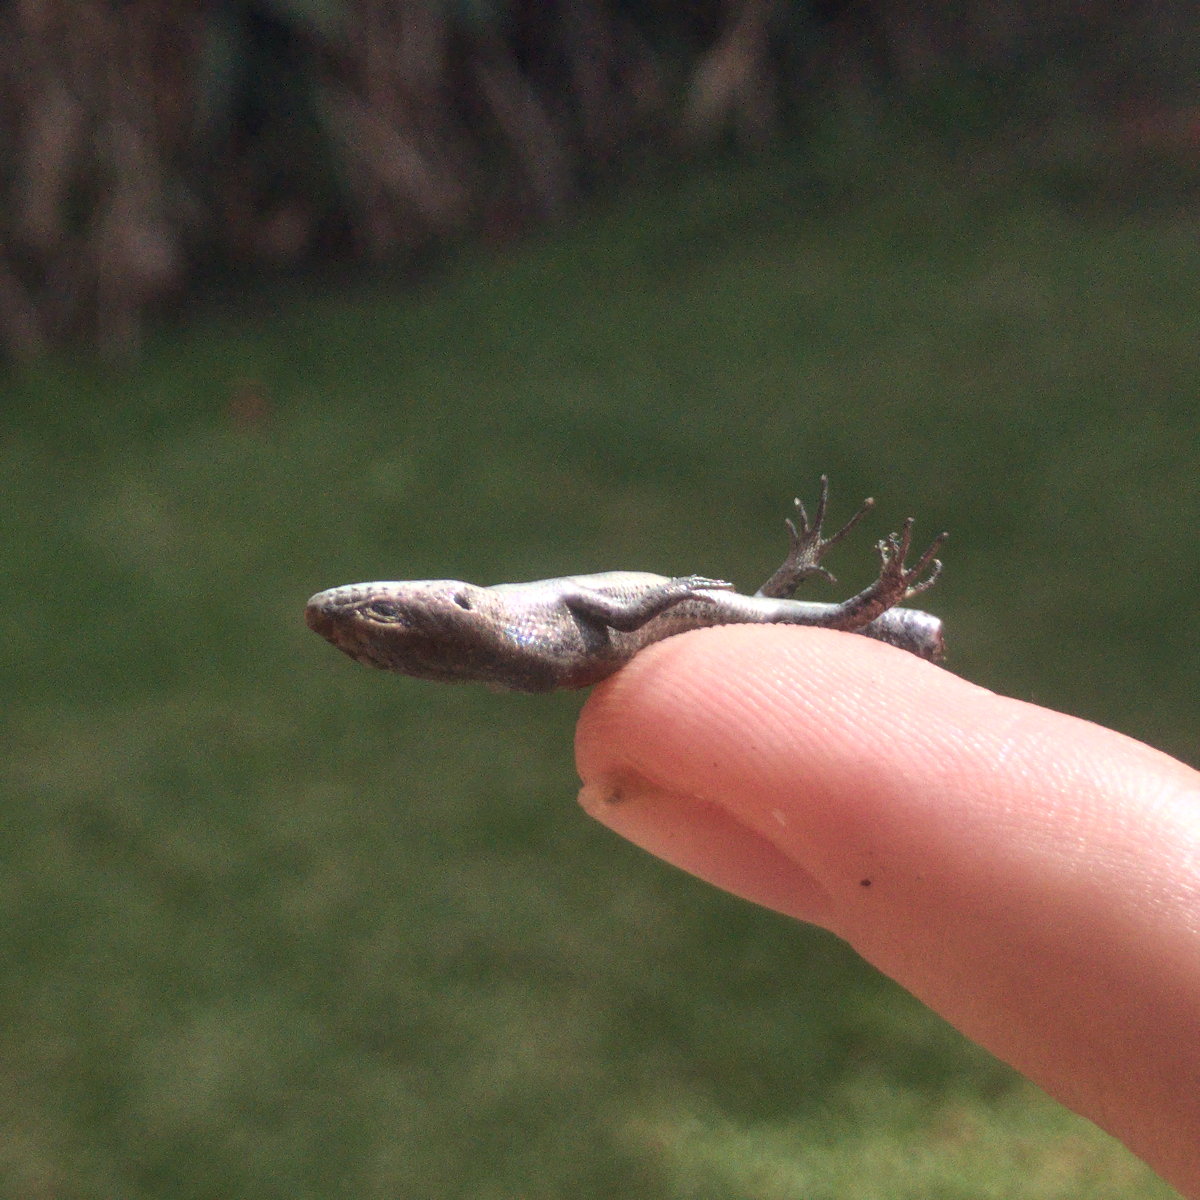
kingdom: Animalia
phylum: Chordata
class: Squamata
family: Scincidae
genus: Lampropholis
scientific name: Lampropholis guichenoti
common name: Garden skink
